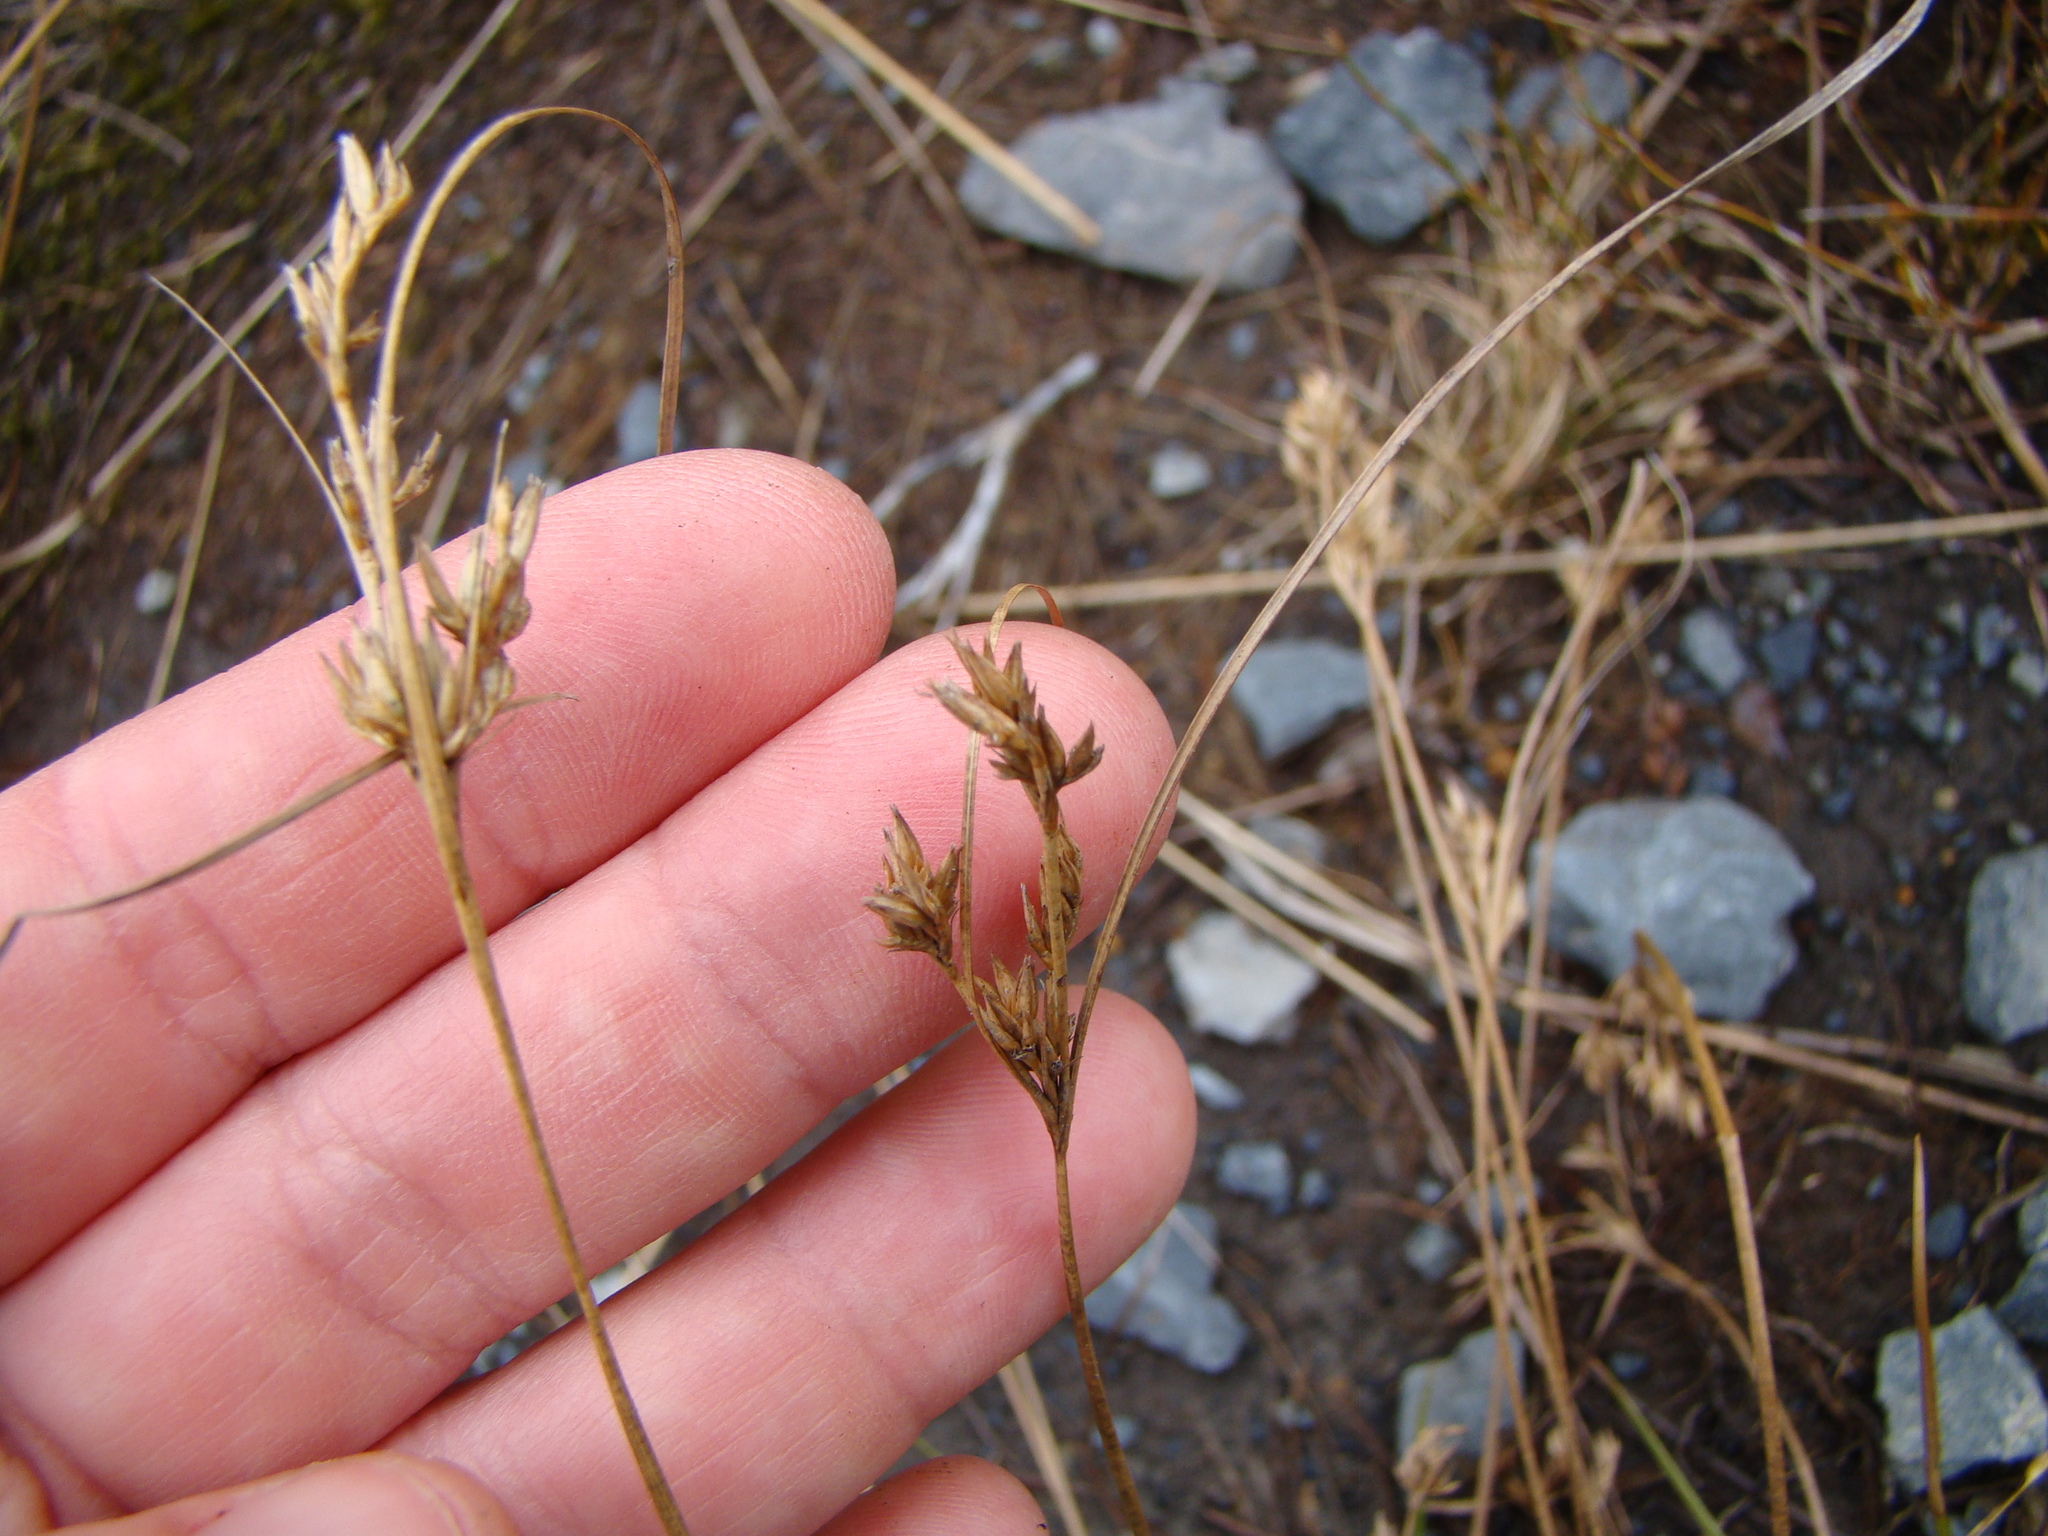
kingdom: Plantae
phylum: Tracheophyta
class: Liliopsida
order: Poales
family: Juncaceae
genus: Juncus
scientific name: Juncus tenuis
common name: Slender rush
